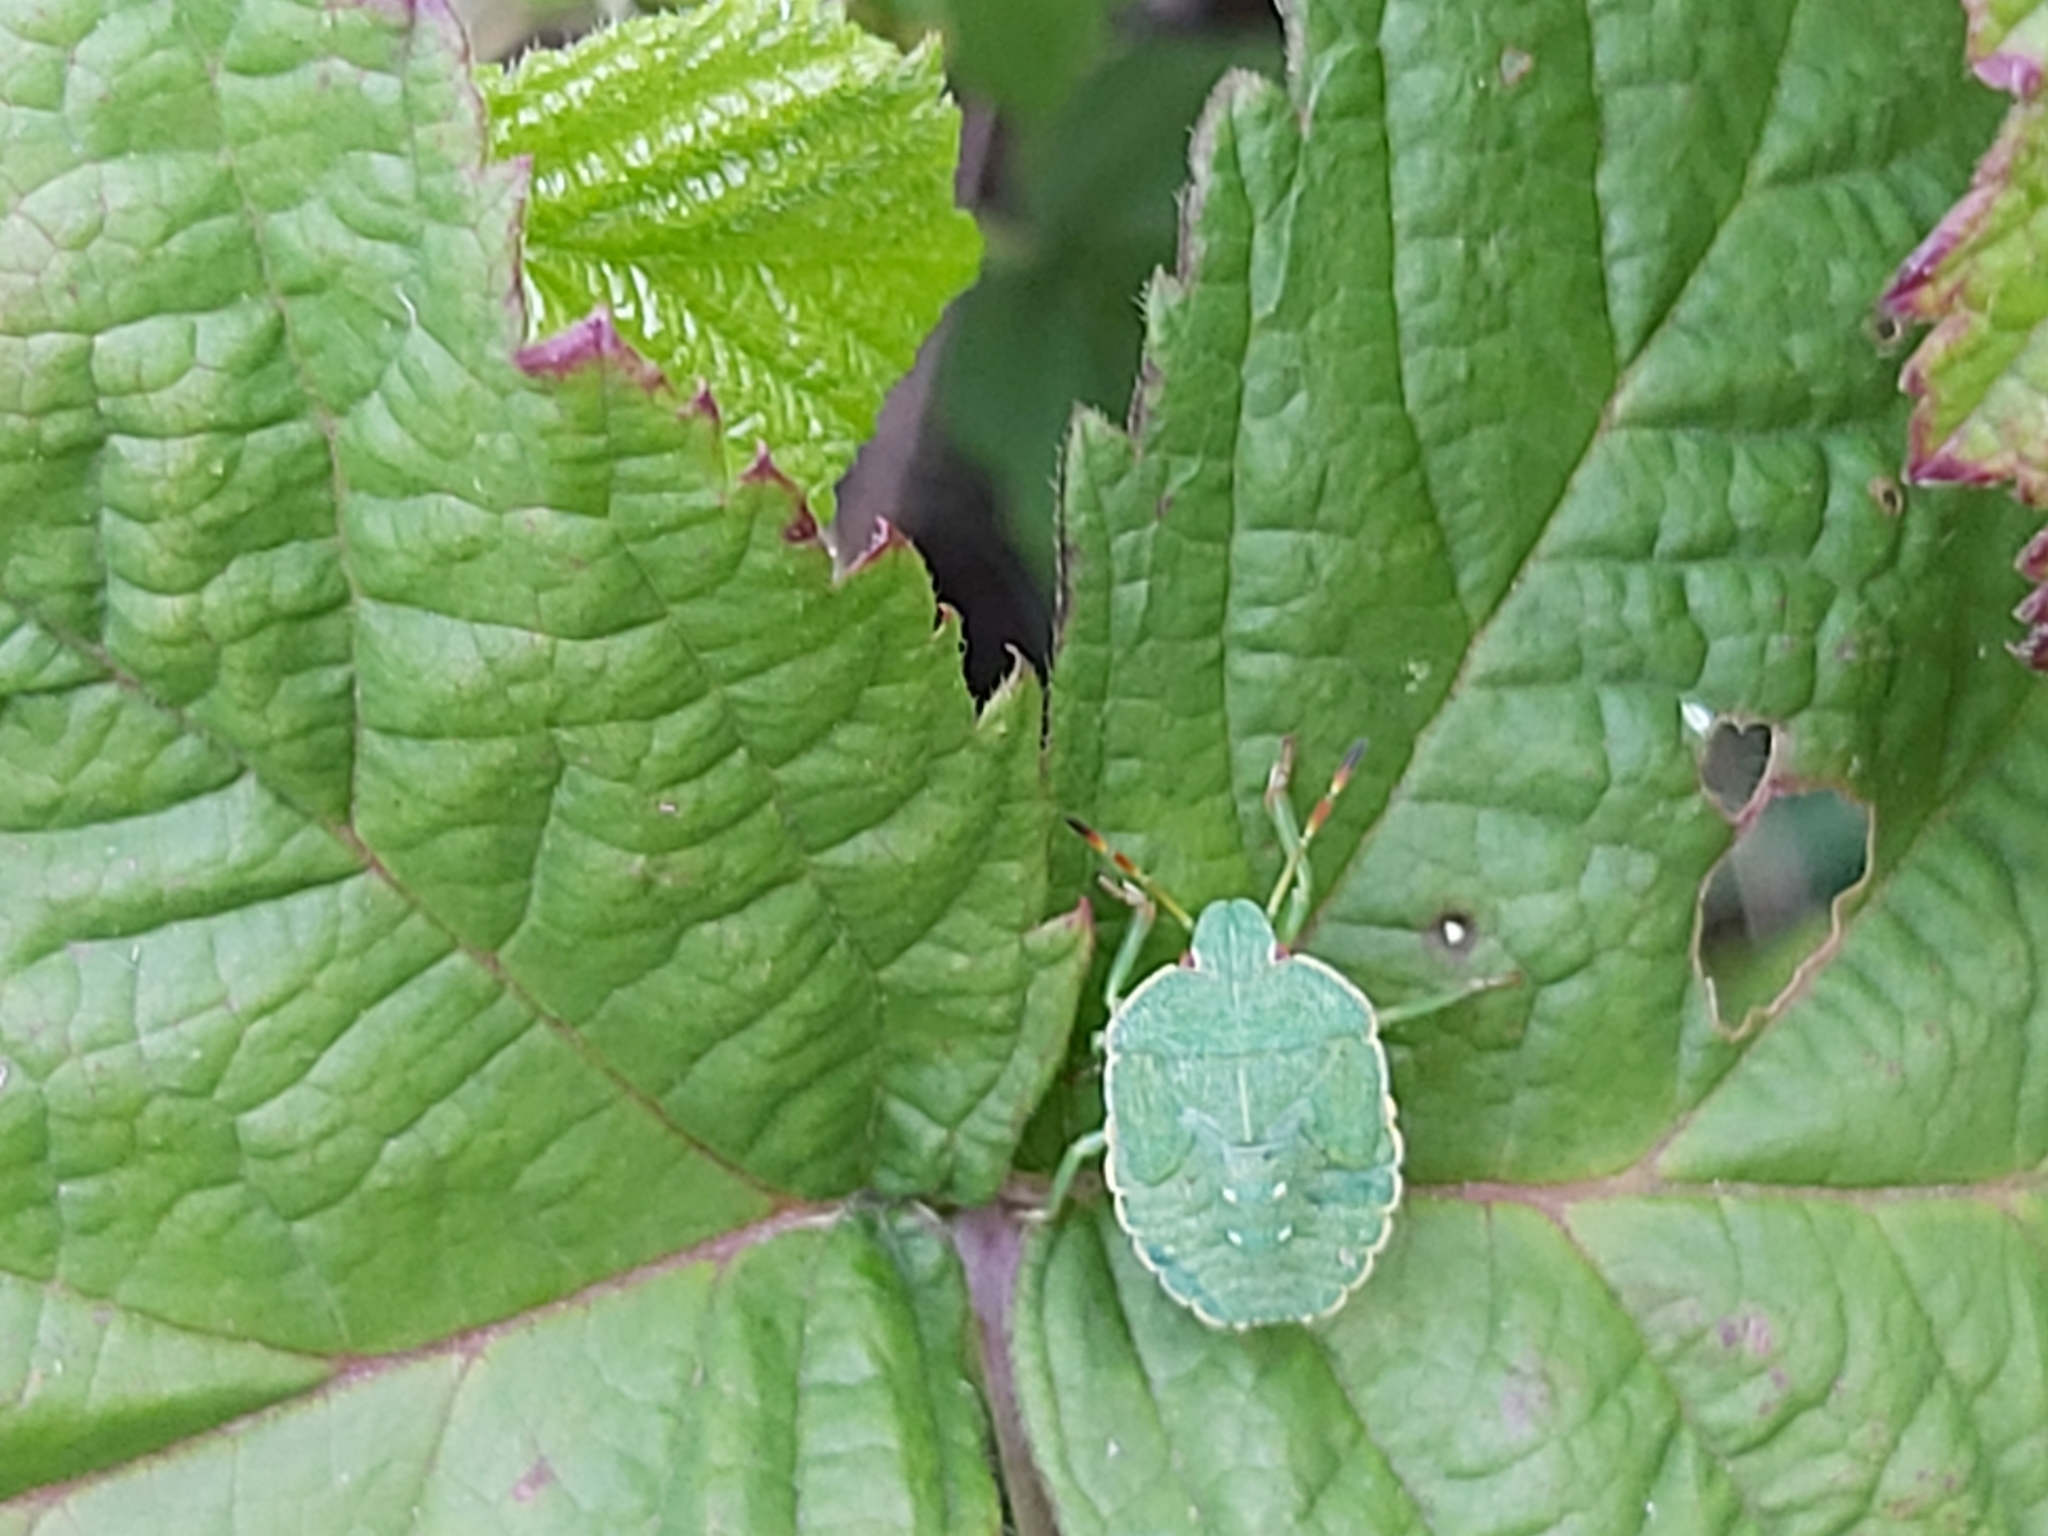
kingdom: Animalia
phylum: Arthropoda
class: Insecta
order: Hemiptera
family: Pentatomidae
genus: Palomena
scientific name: Palomena prasina
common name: Green shieldbug
